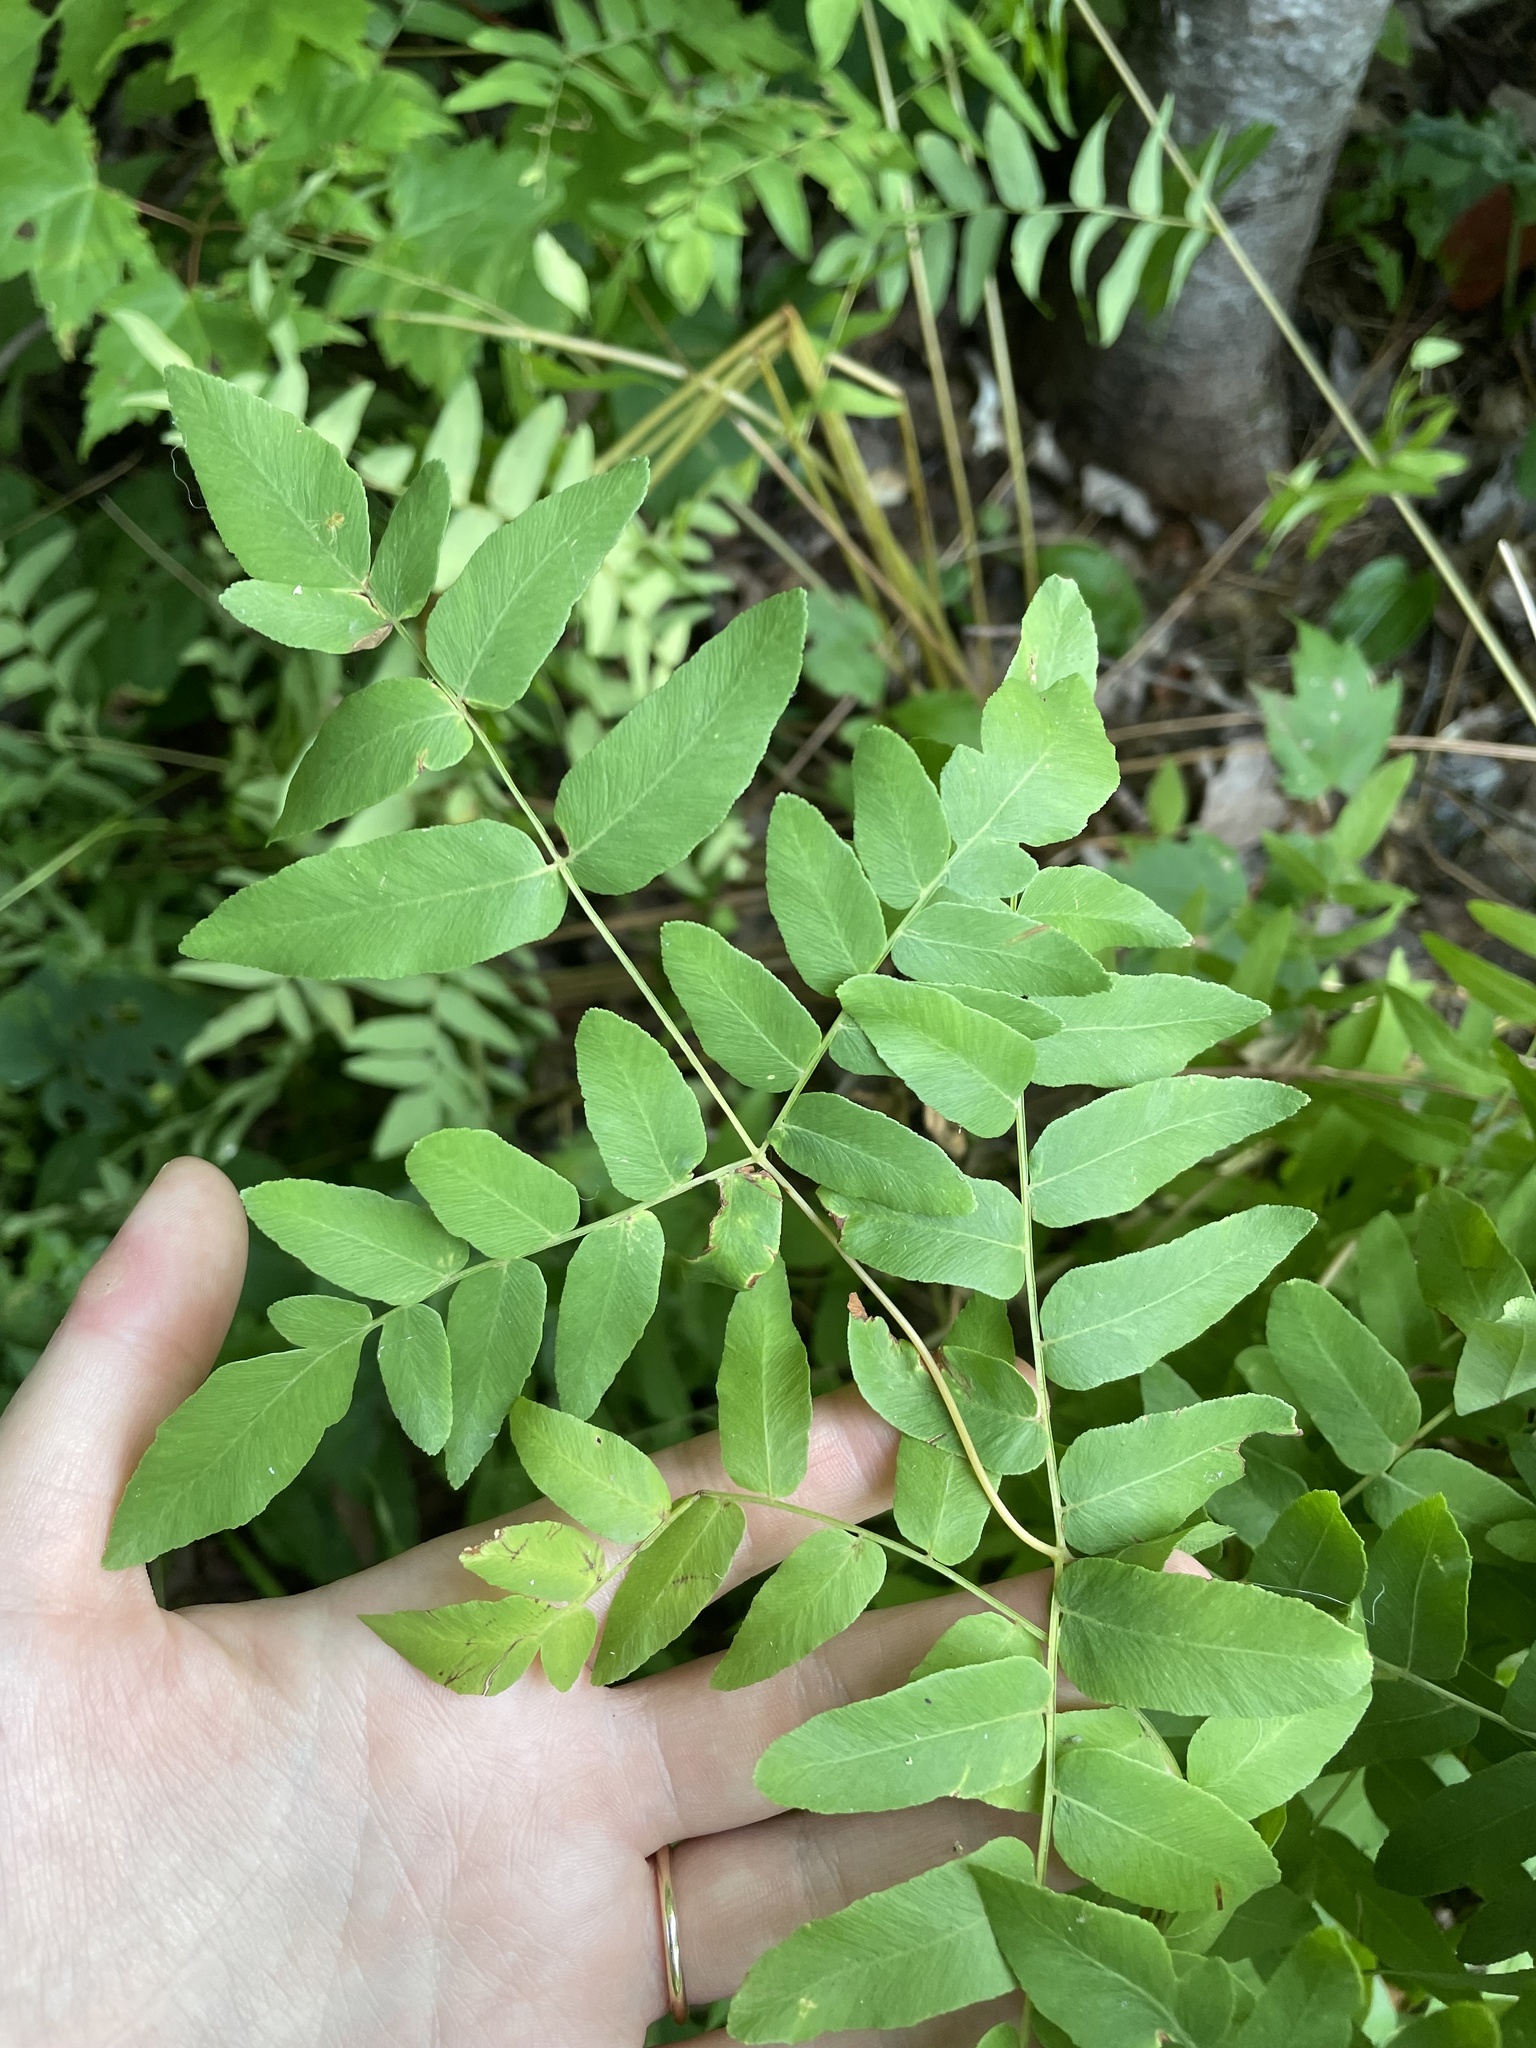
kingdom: Plantae
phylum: Tracheophyta
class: Polypodiopsida
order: Osmundales
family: Osmundaceae
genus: Osmunda
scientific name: Osmunda spectabilis
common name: American royal fern
